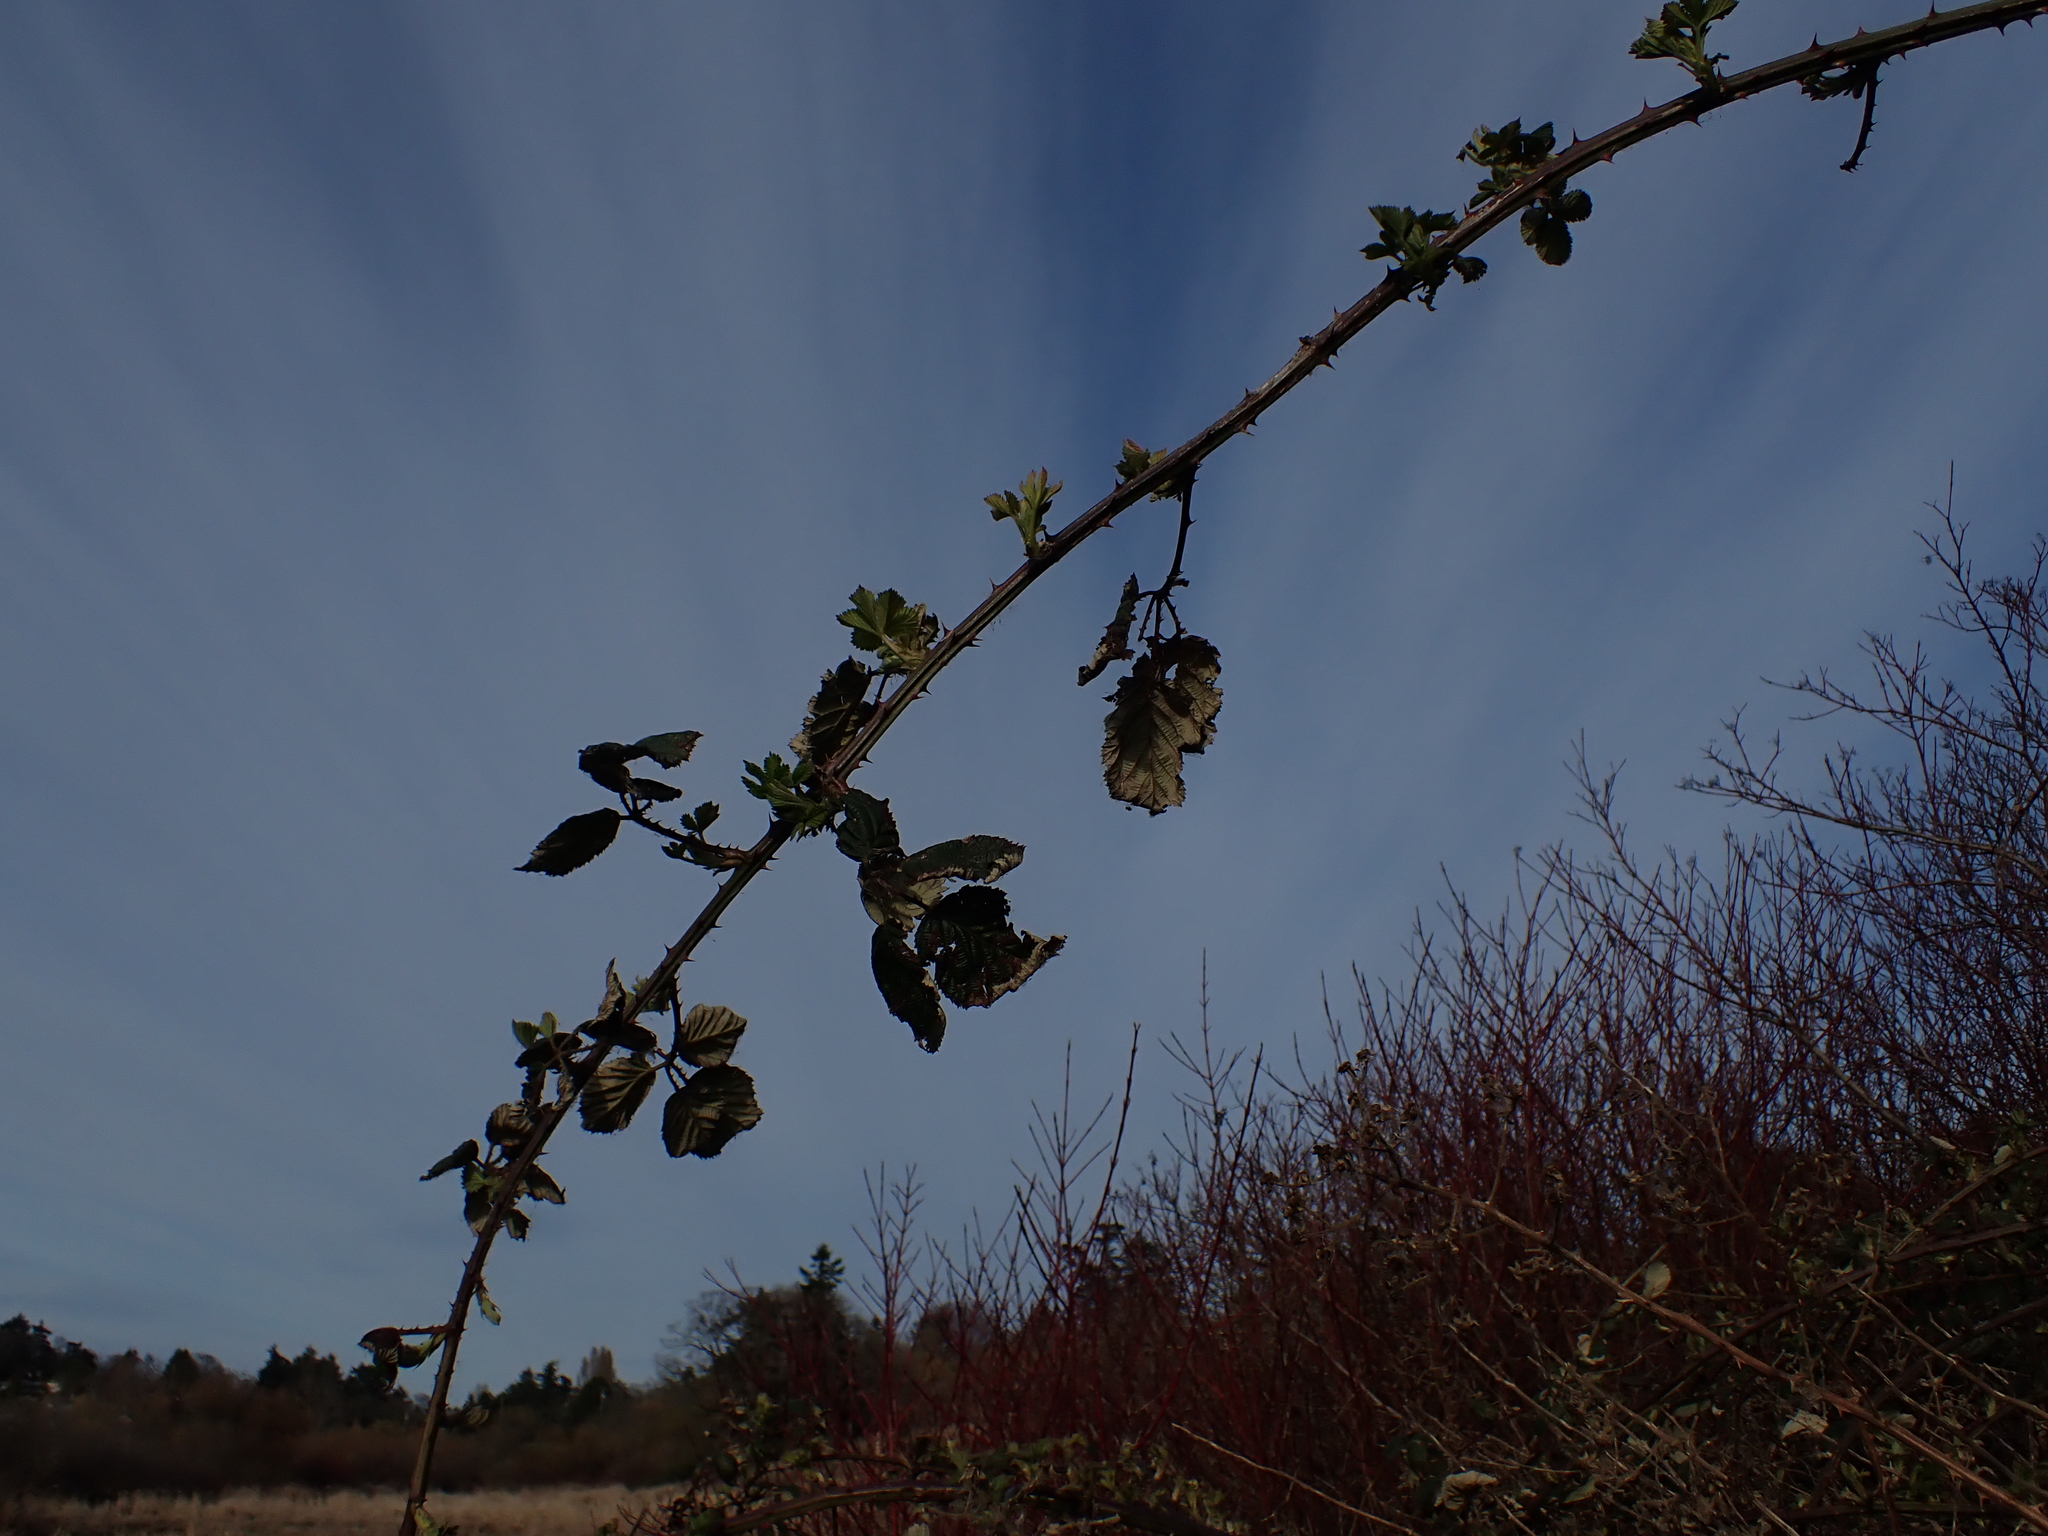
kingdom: Plantae
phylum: Tracheophyta
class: Magnoliopsida
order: Rosales
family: Rosaceae
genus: Rubus
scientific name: Rubus bifrons
